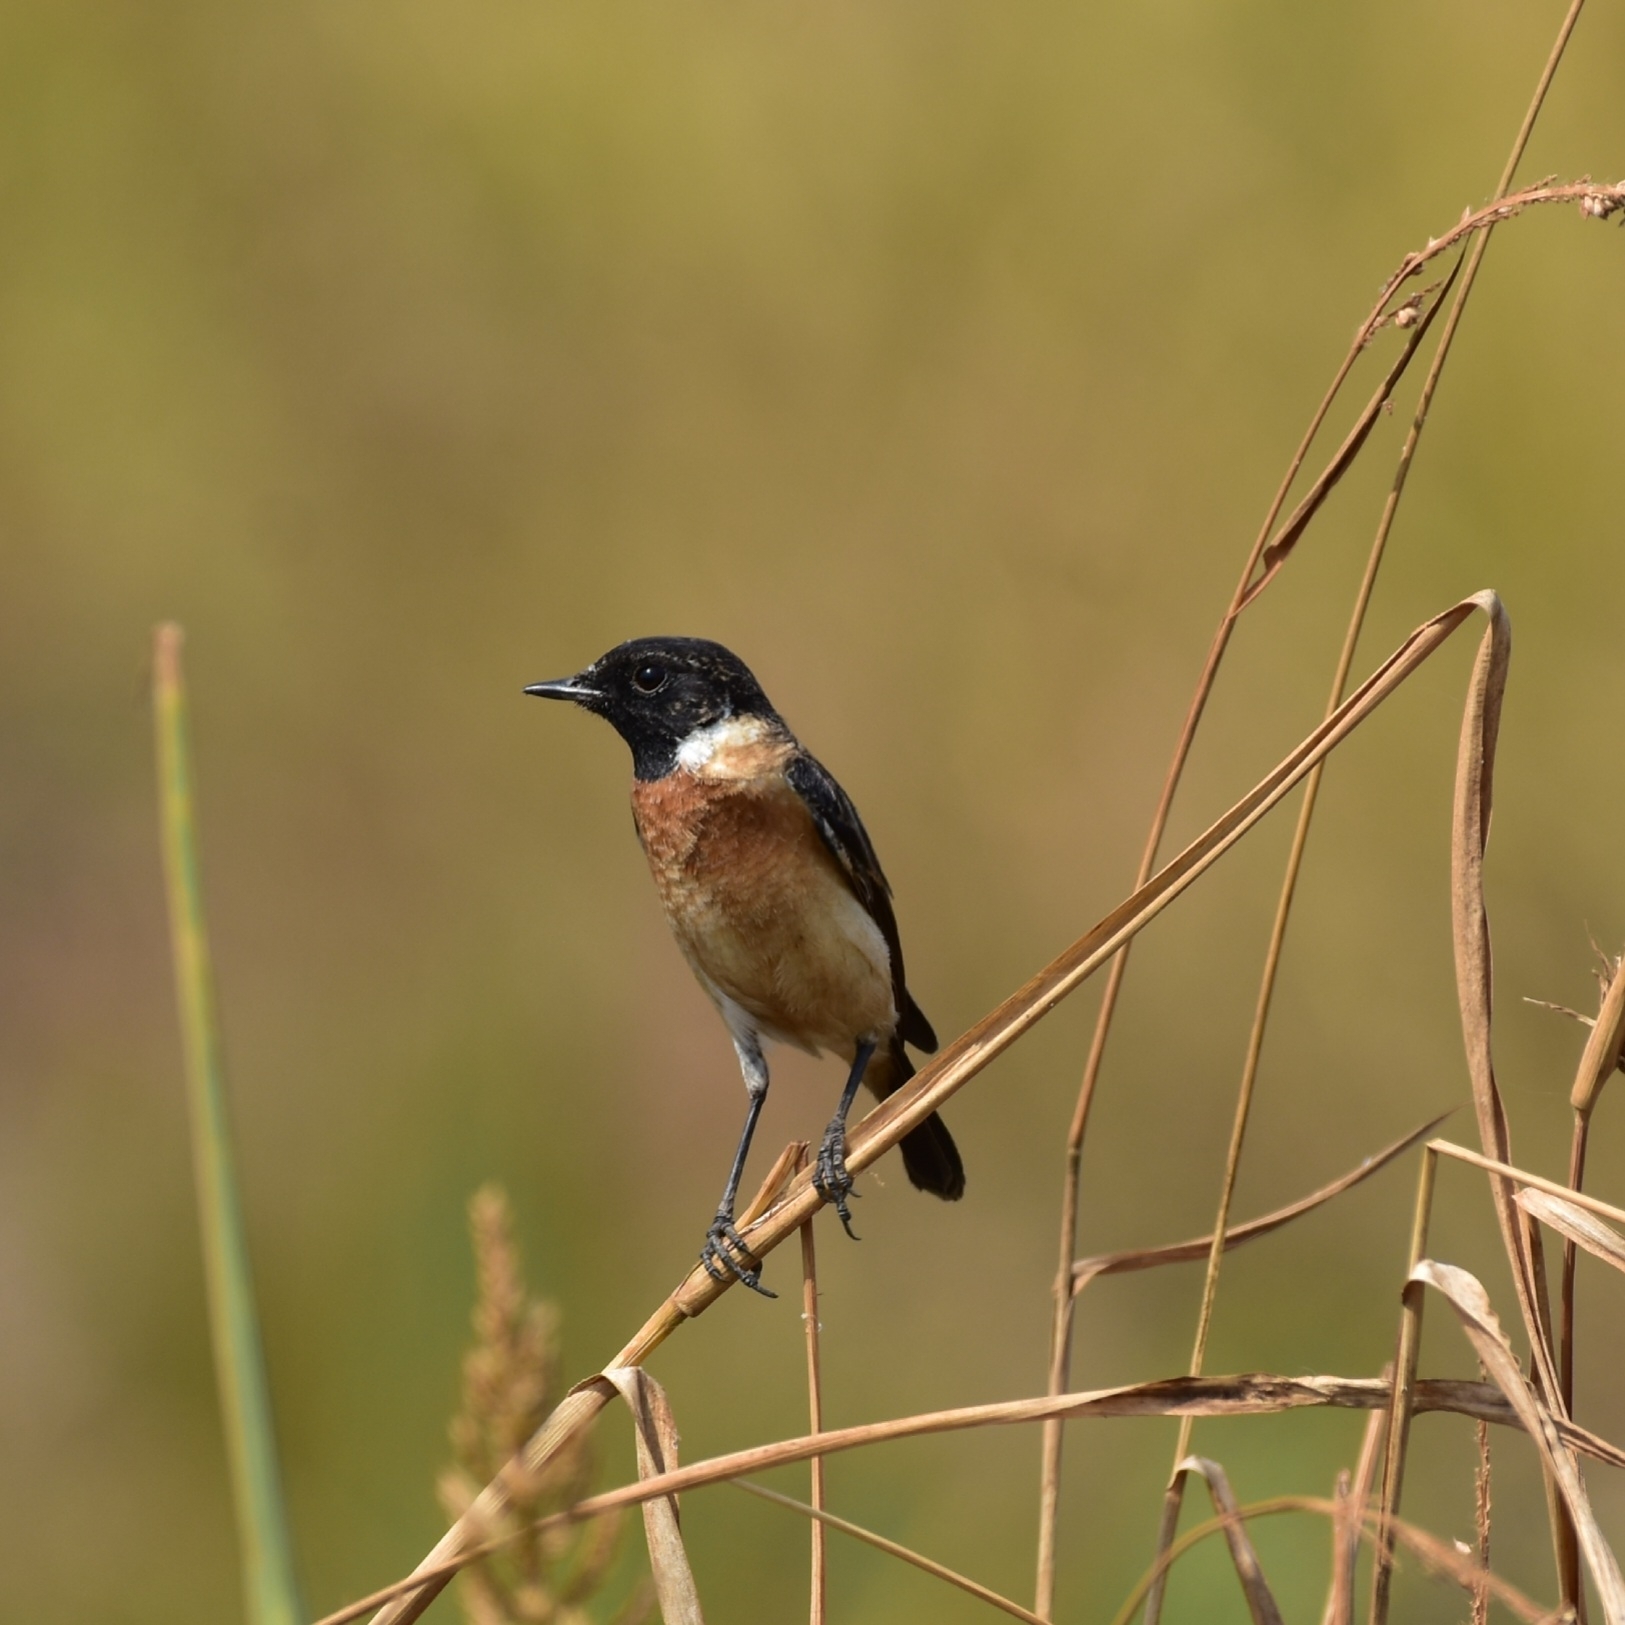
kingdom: Animalia
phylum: Chordata
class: Aves
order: Passeriformes
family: Muscicapidae
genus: Saxicola
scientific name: Saxicola maurus
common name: Siberian stonechat
